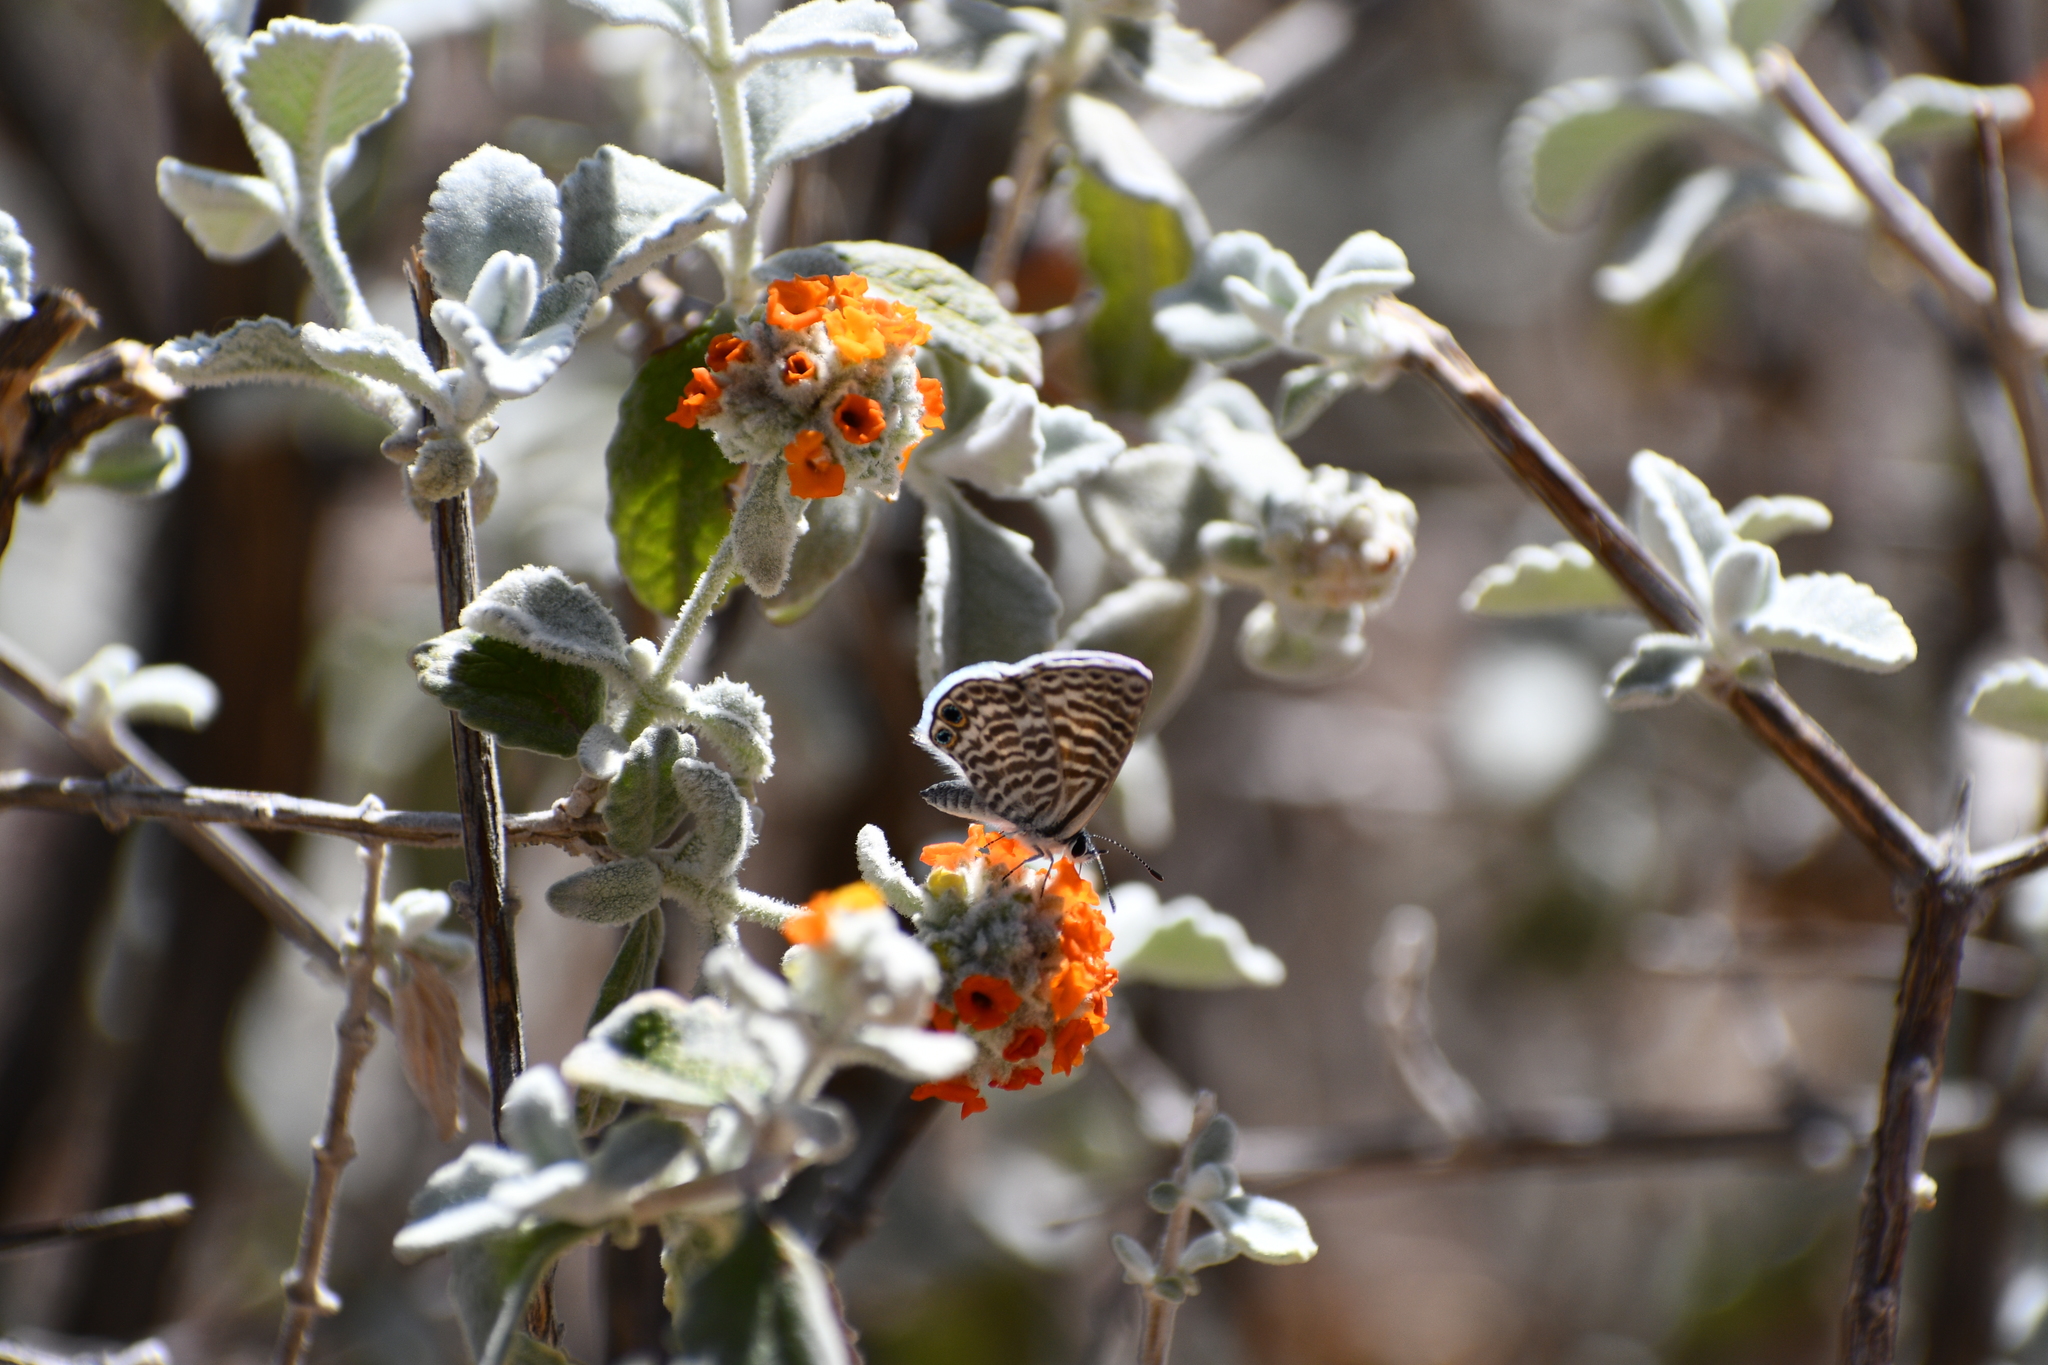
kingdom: Animalia
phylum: Arthropoda
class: Insecta
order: Lepidoptera
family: Lycaenidae
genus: Leptotes
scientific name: Leptotes marina
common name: Marine blue
